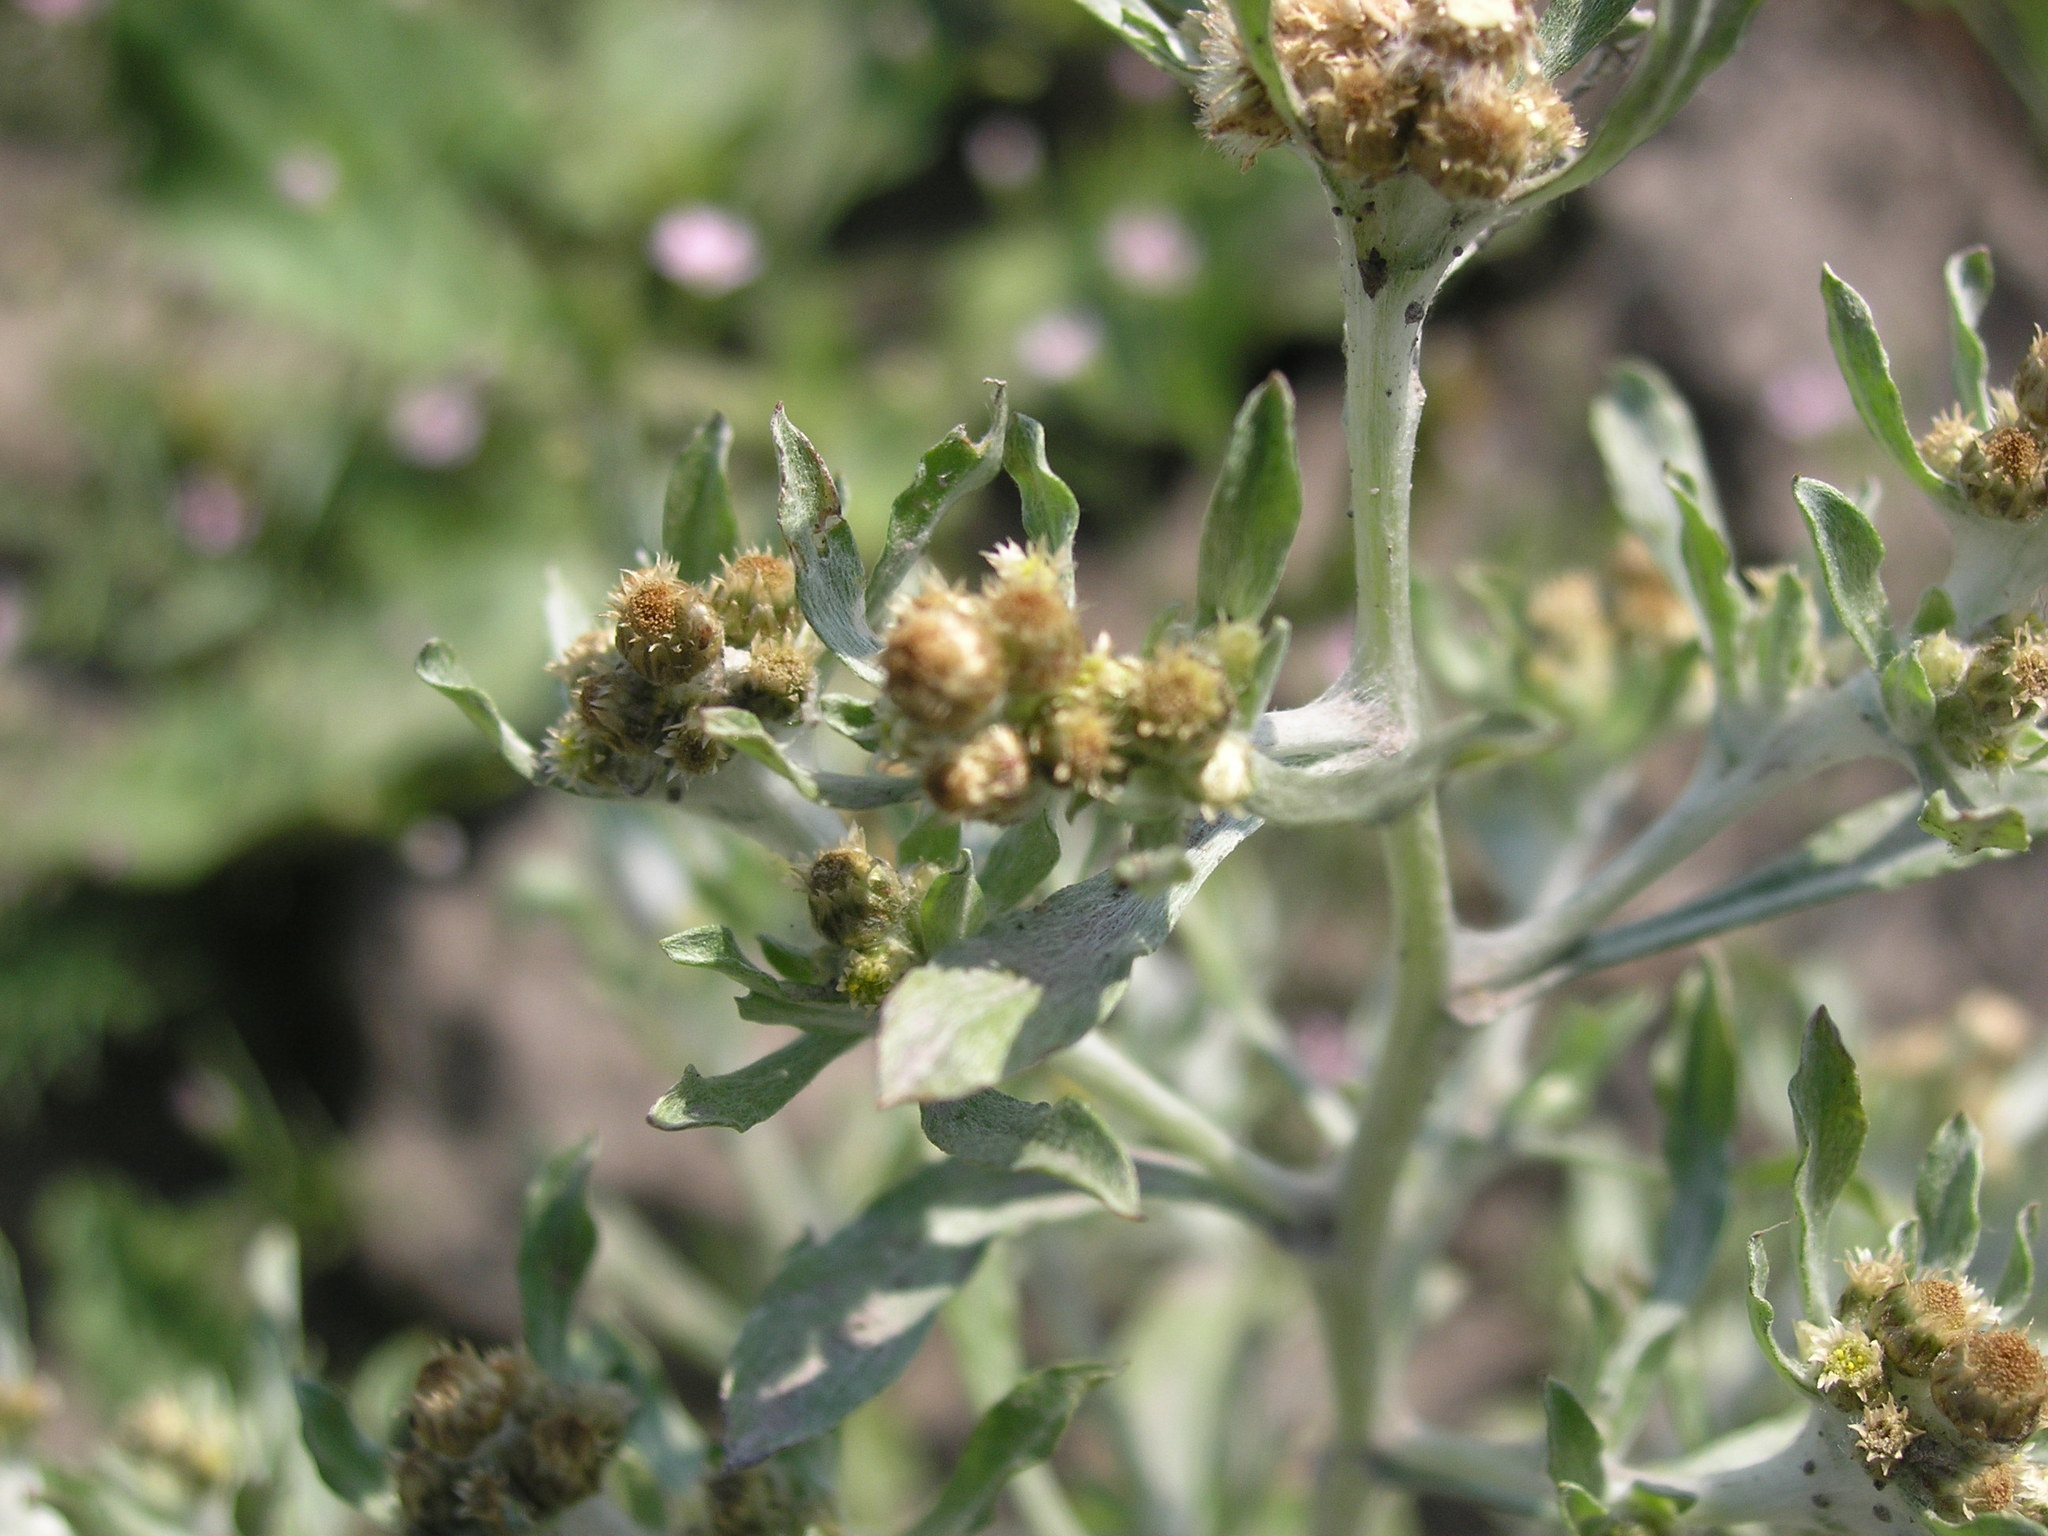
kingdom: Plantae
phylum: Tracheophyta
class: Magnoliopsida
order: Asterales
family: Asteraceae
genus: Gnaphalium
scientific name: Gnaphalium uliginosum
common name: Marsh cudweed
